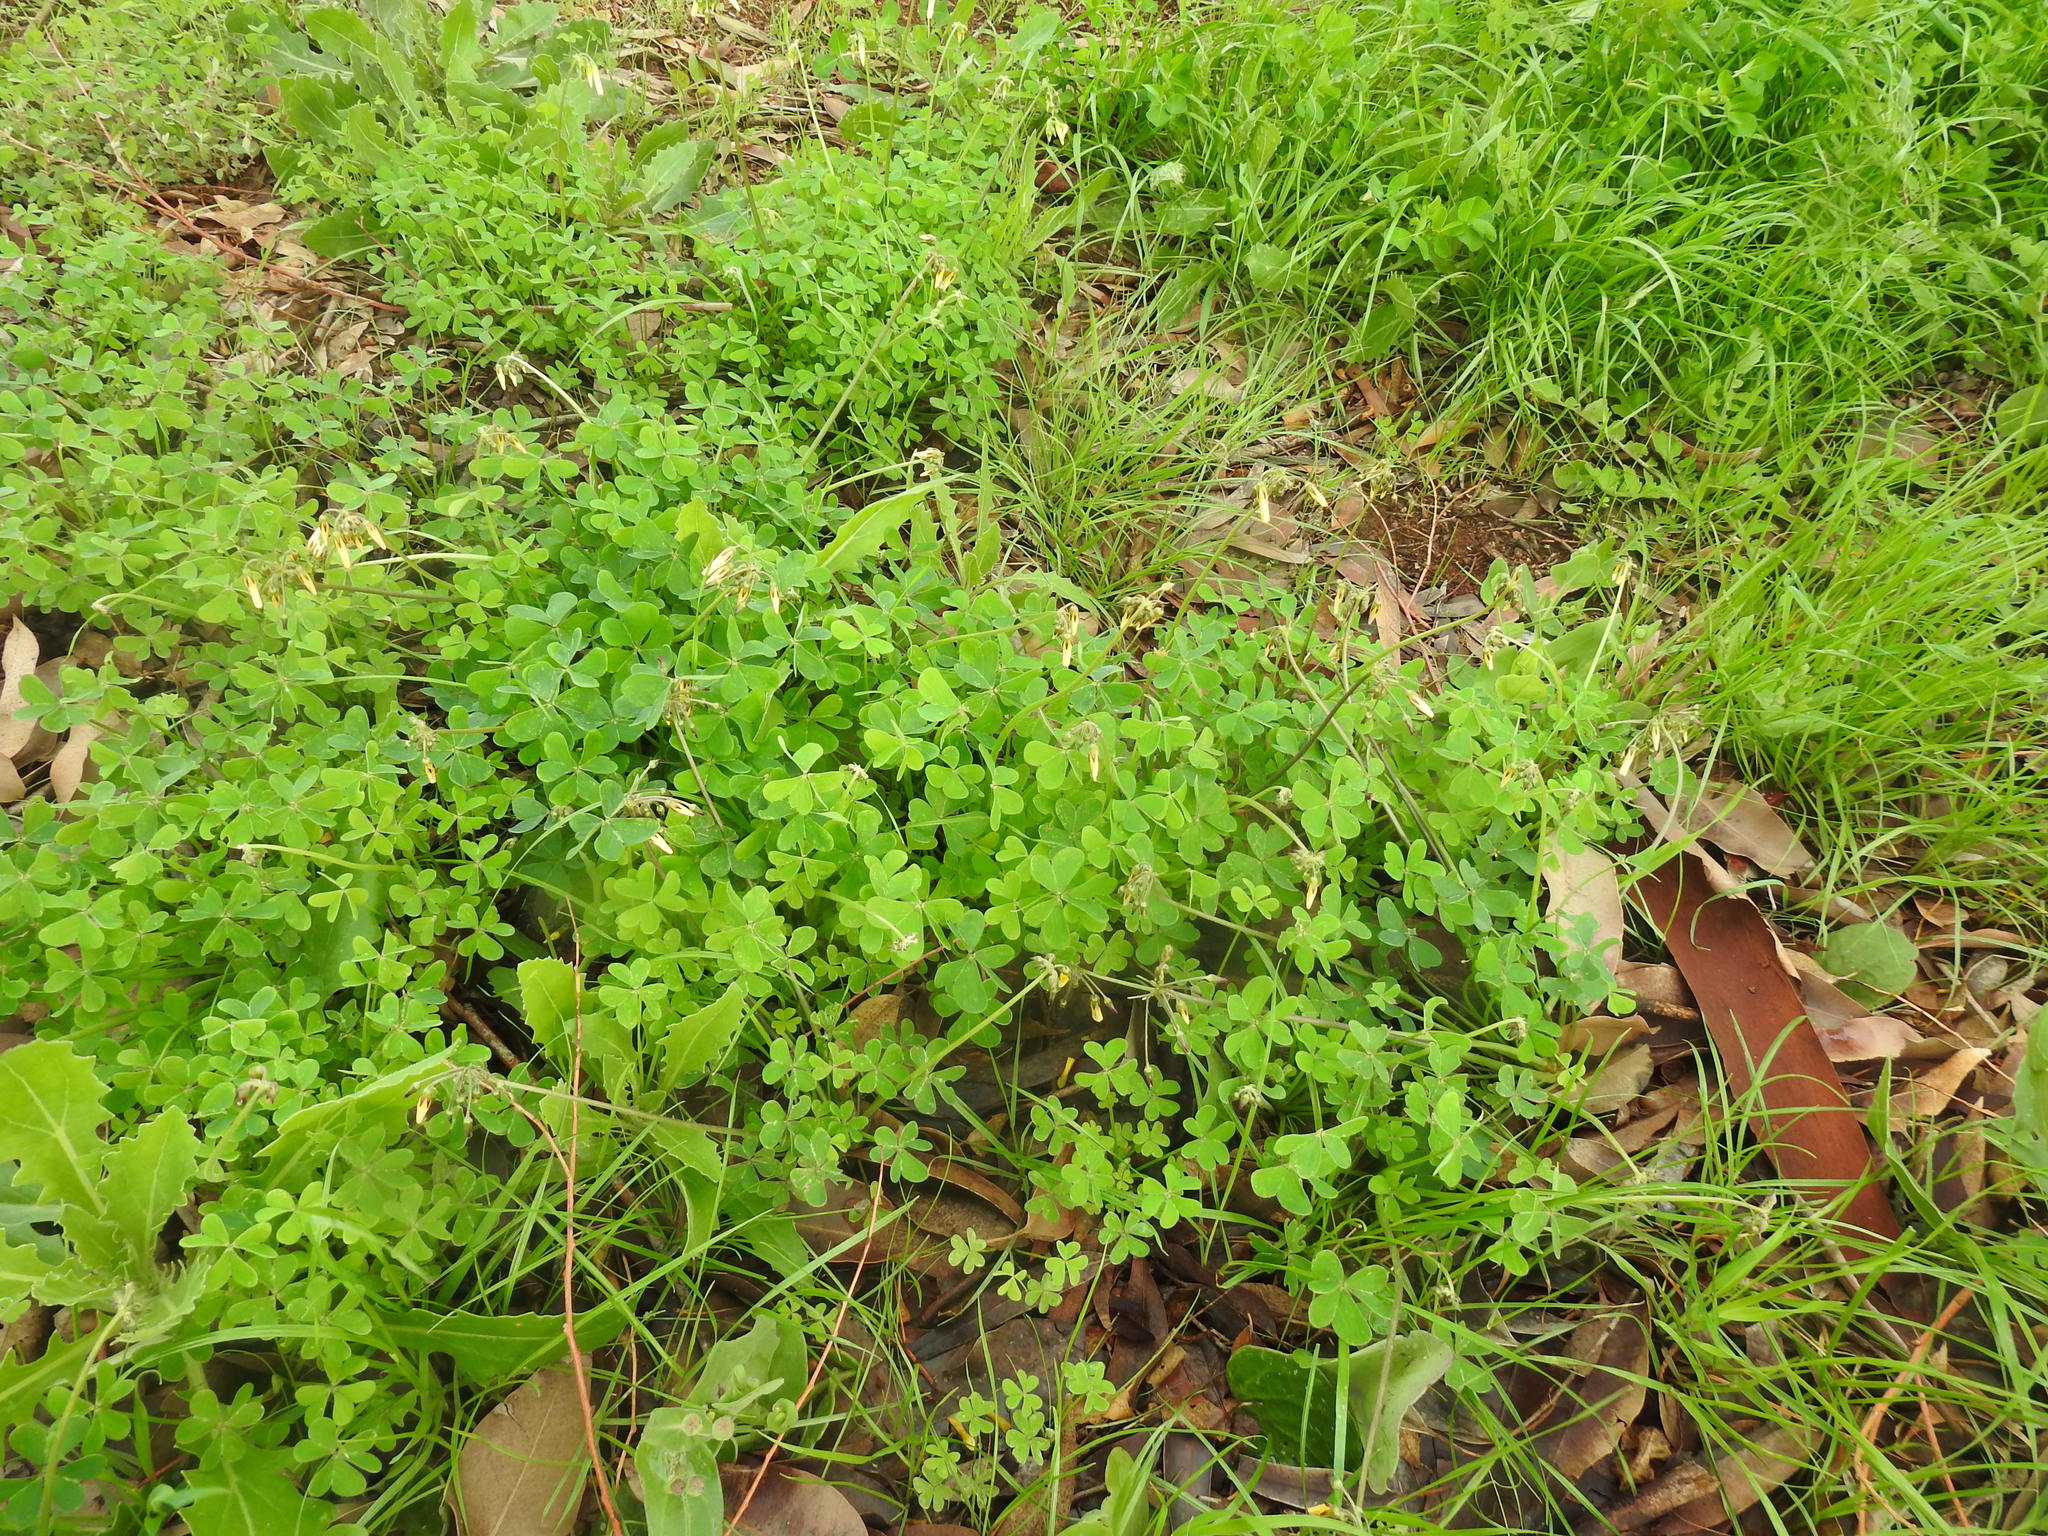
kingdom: Plantae
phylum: Tracheophyta
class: Magnoliopsida
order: Oxalidales
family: Oxalidaceae
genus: Oxalis
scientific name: Oxalis pes-caprae
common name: Bermuda-buttercup
